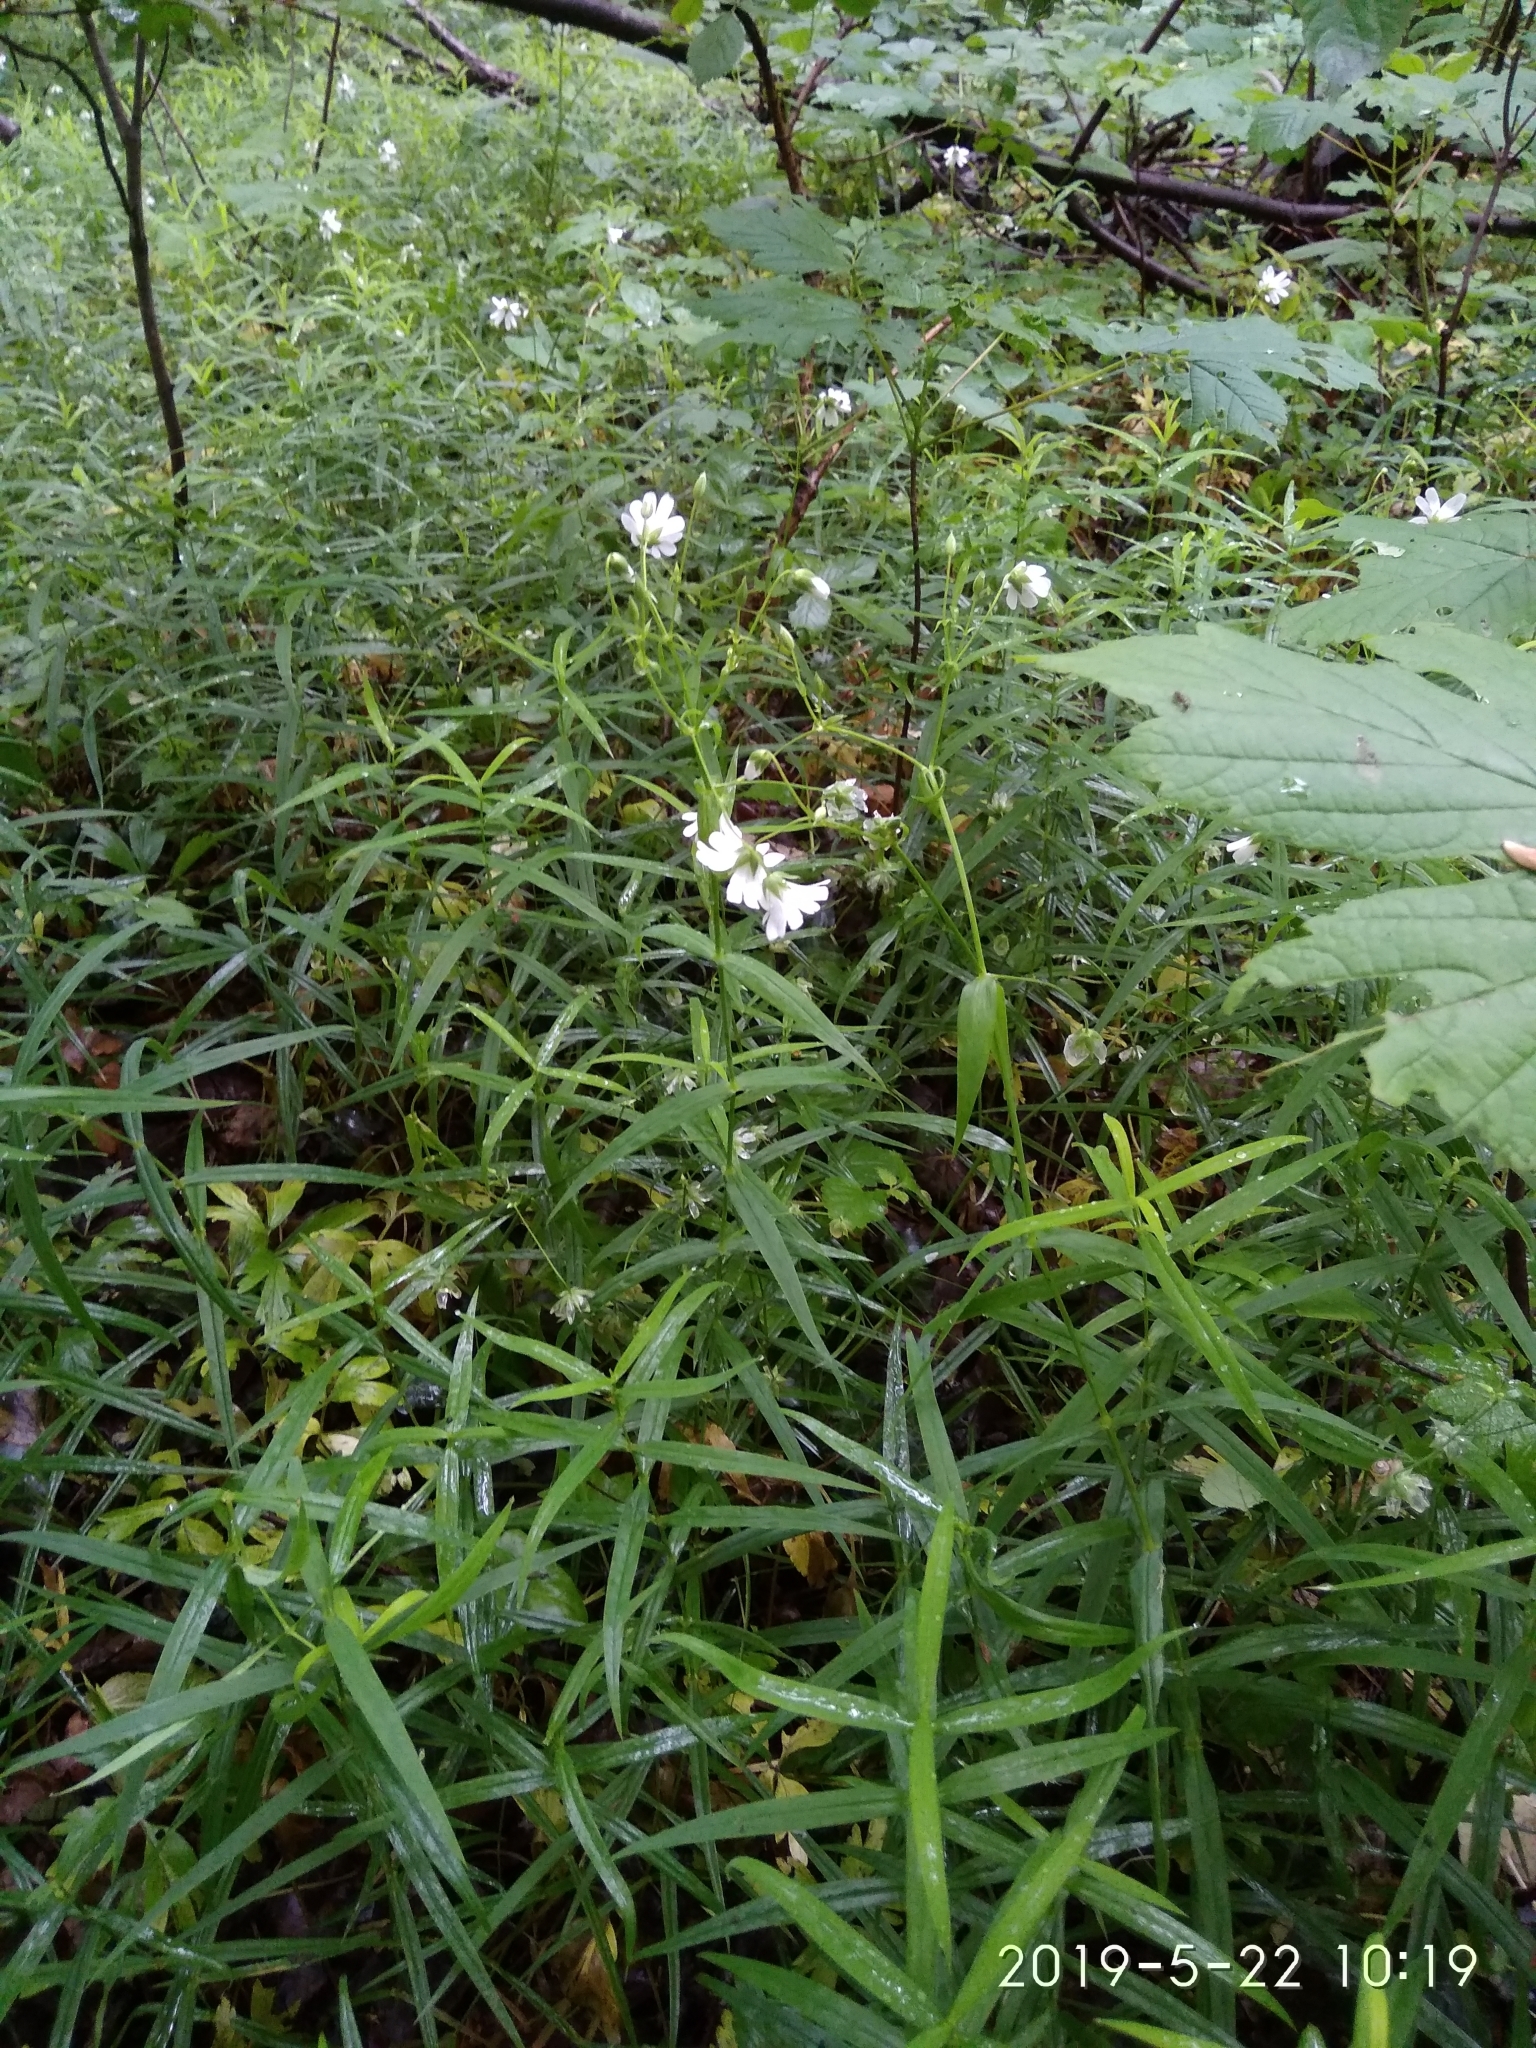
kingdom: Plantae
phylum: Tracheophyta
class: Magnoliopsida
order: Caryophyllales
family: Caryophyllaceae
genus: Rabelera
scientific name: Rabelera holostea
